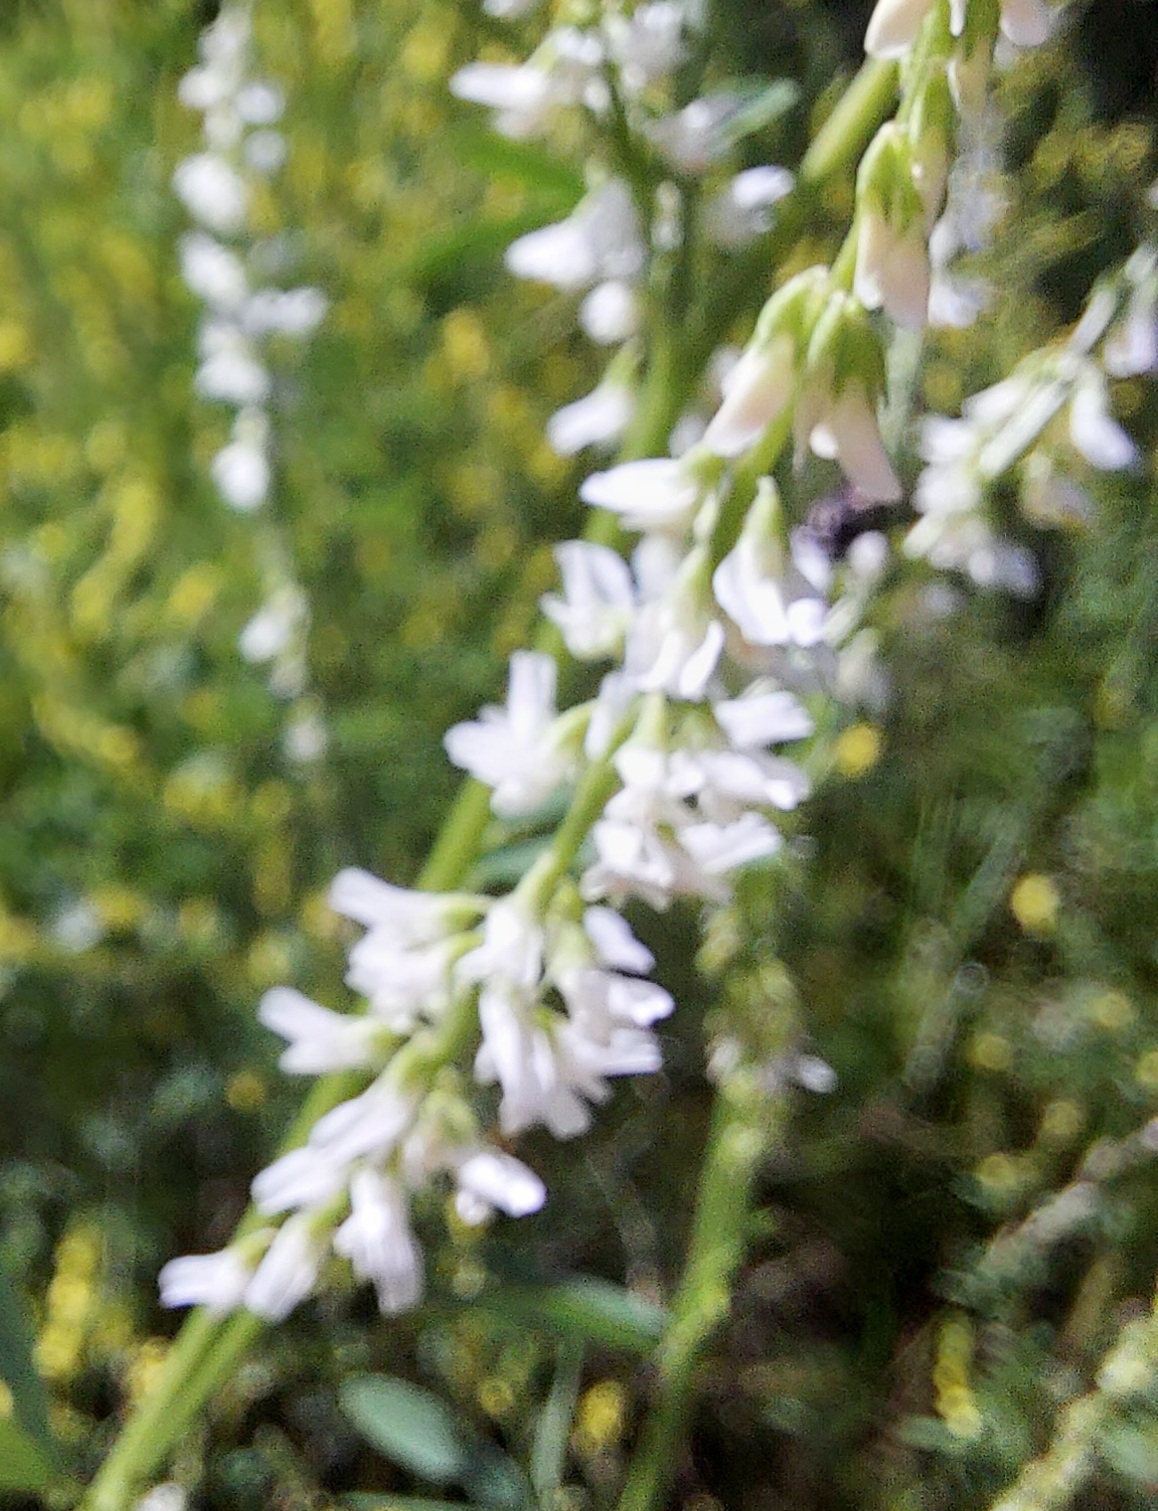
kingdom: Plantae
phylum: Tracheophyta
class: Magnoliopsida
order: Fabales
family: Fabaceae
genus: Melilotus
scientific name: Melilotus albus
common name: White melilot
